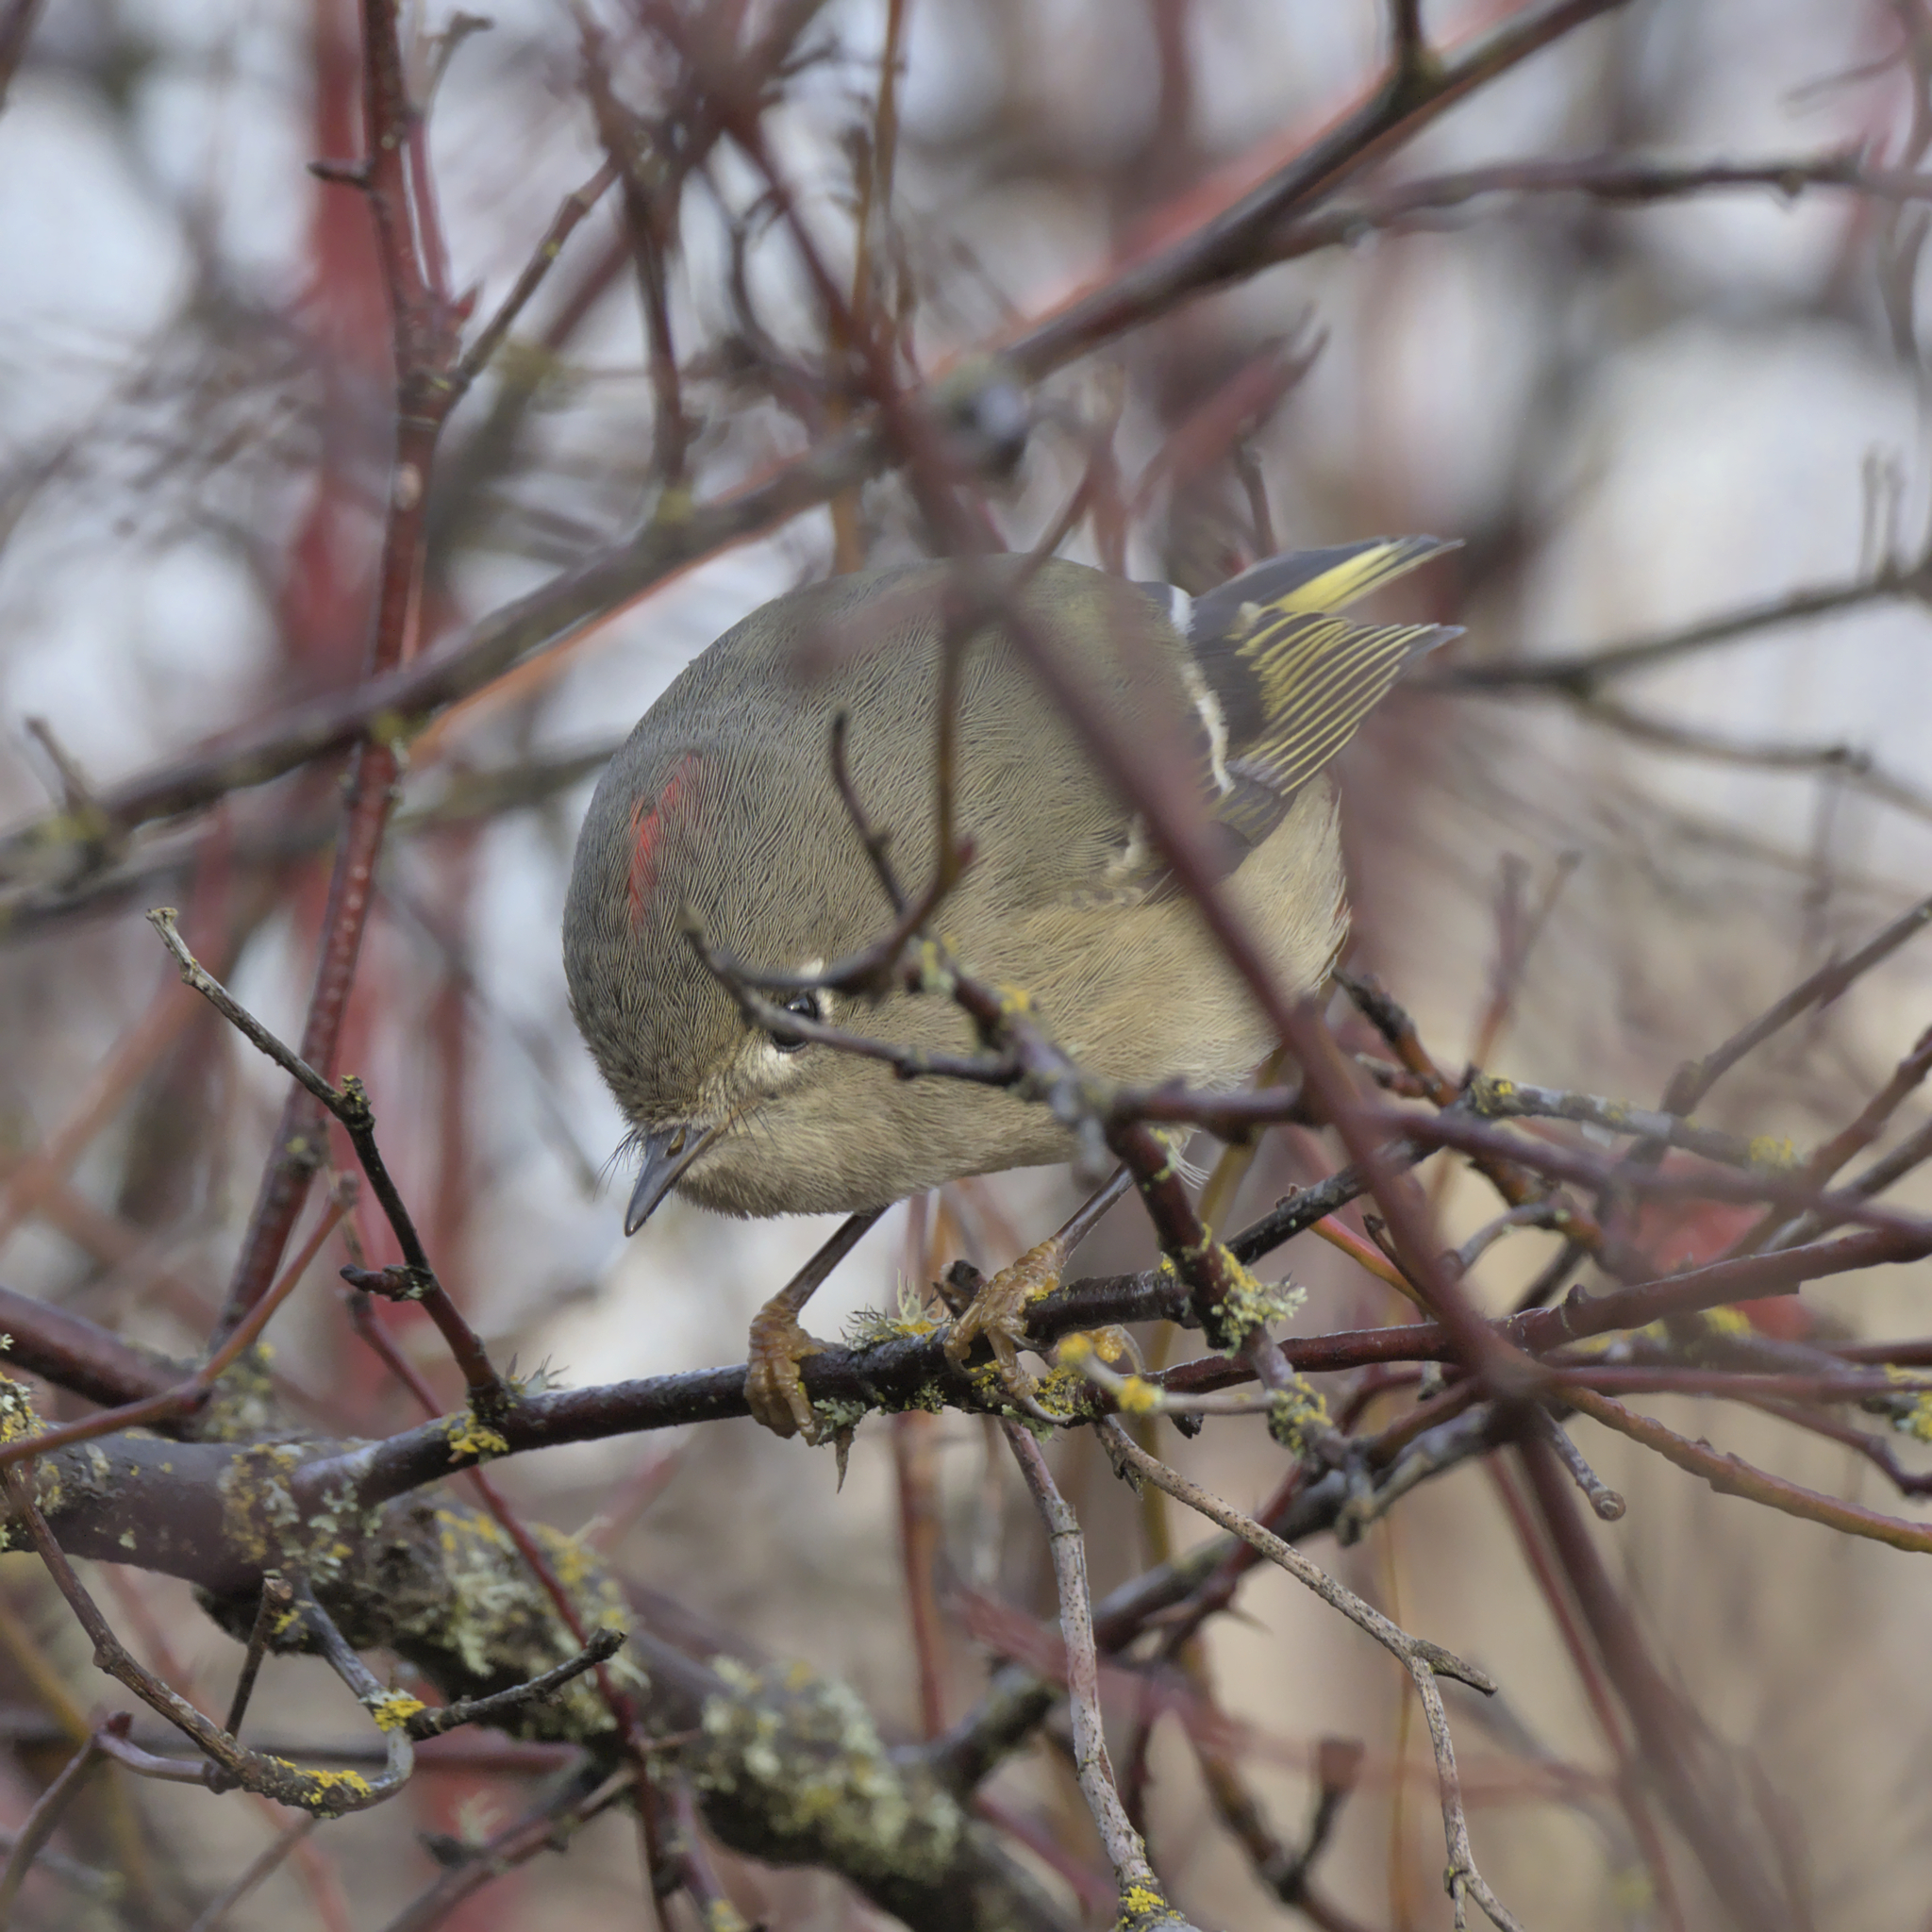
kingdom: Animalia
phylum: Chordata
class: Aves
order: Passeriformes
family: Regulidae
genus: Regulus
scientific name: Regulus calendula
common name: Ruby-crowned kinglet
